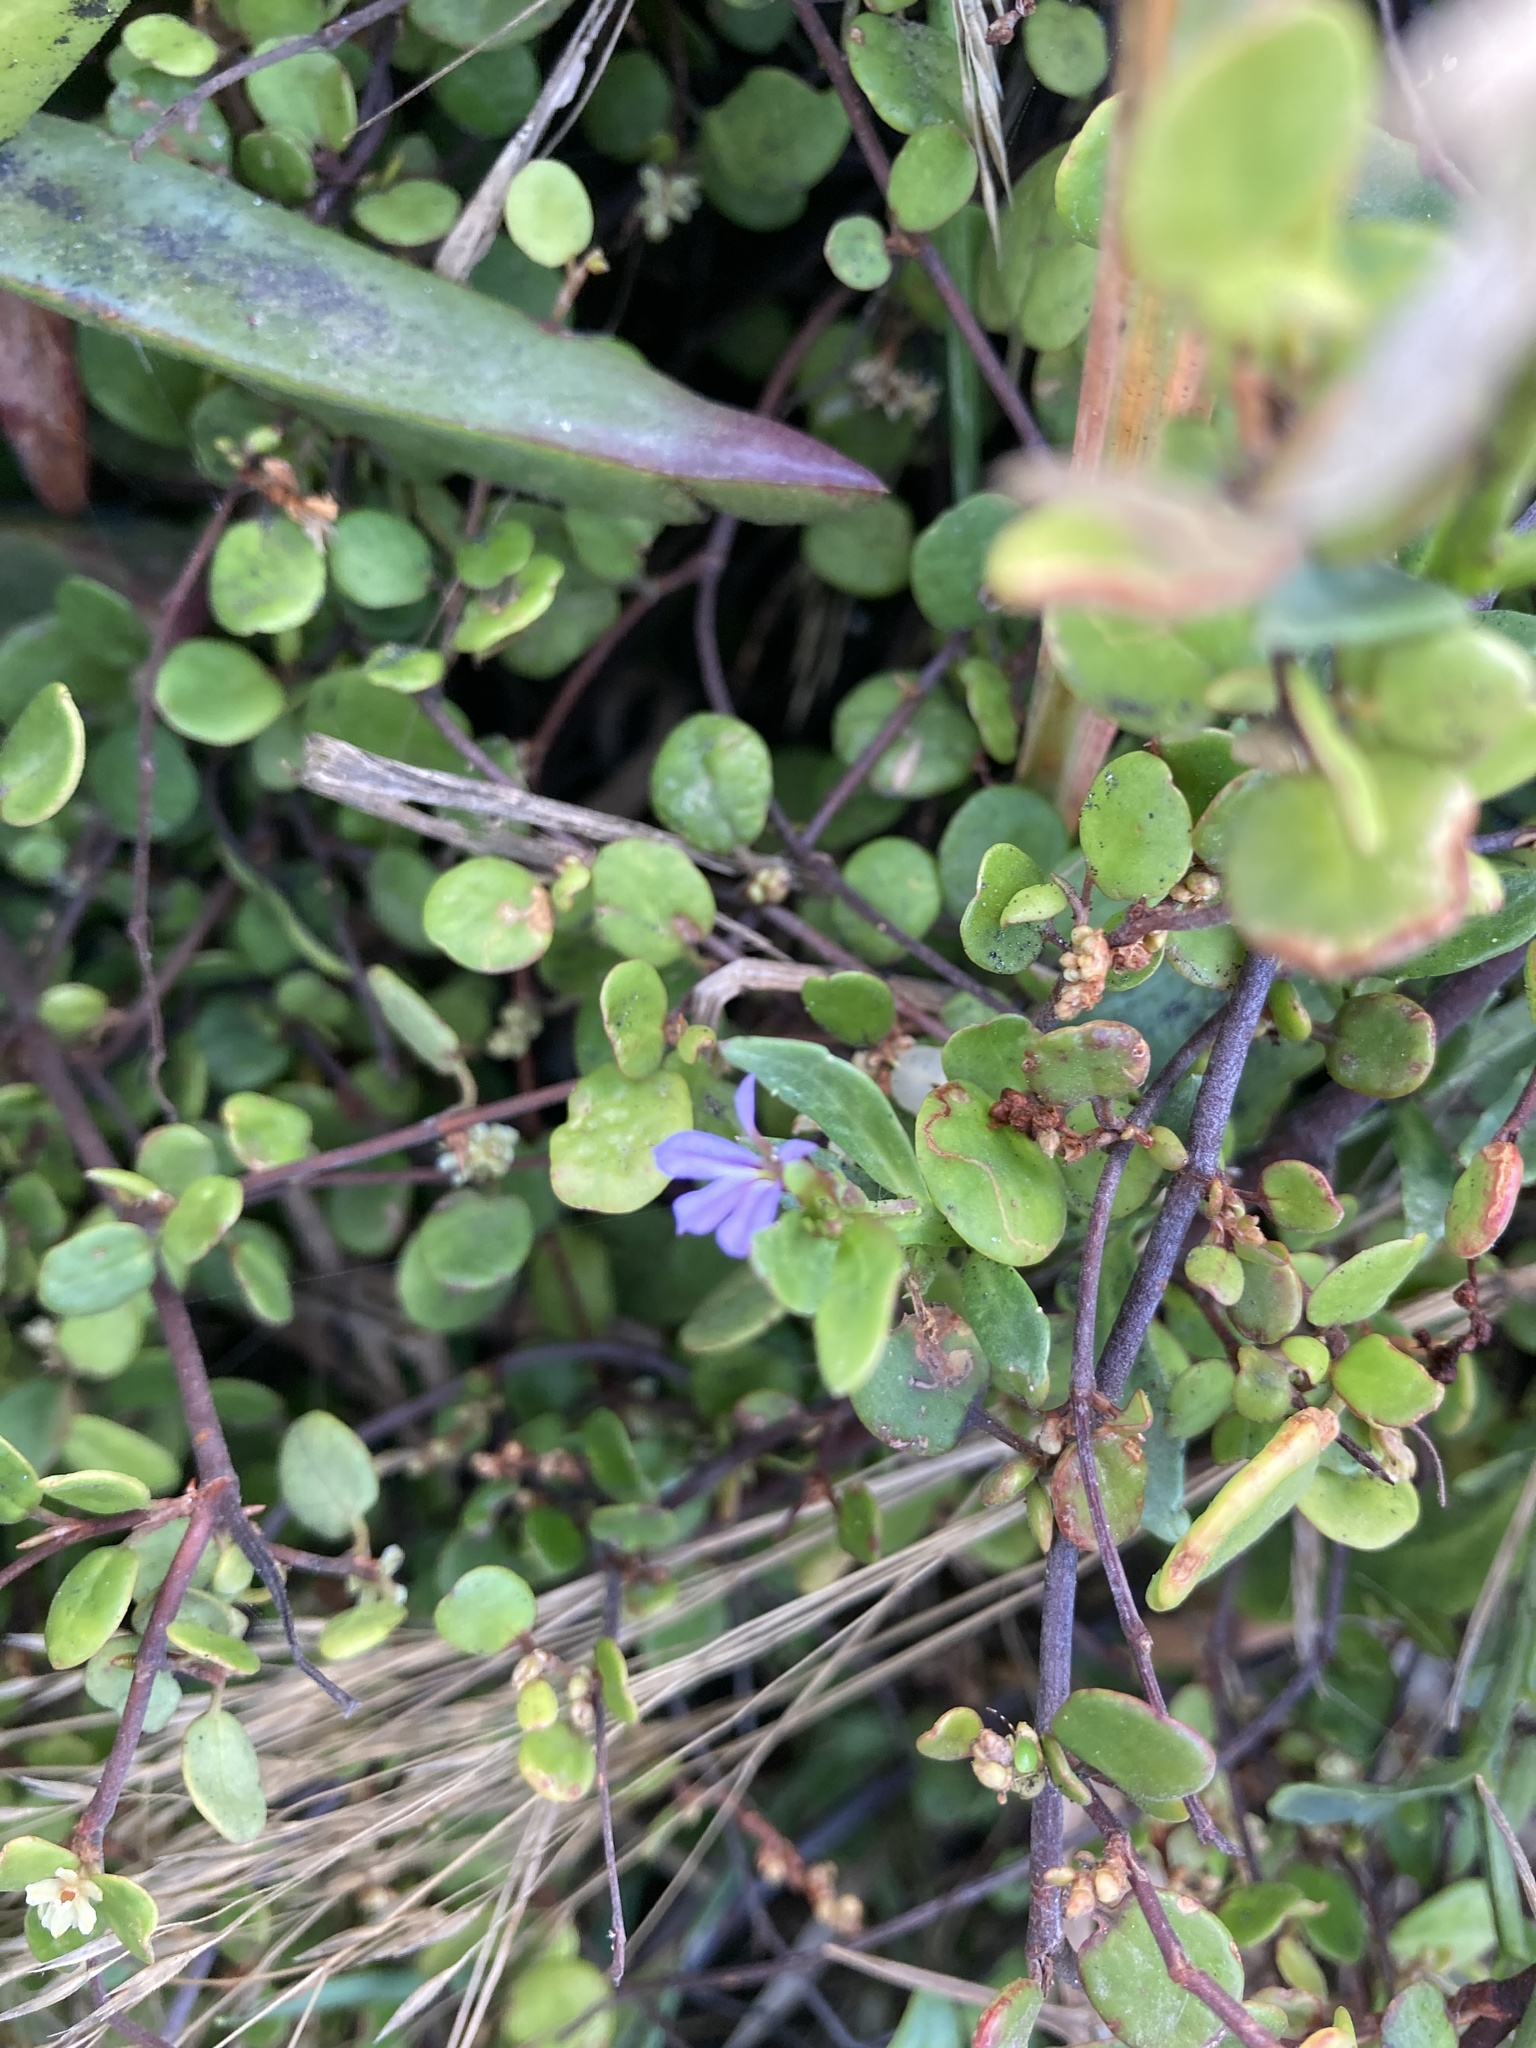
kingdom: Plantae
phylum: Tracheophyta
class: Magnoliopsida
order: Asterales
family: Campanulaceae
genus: Lobelia
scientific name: Lobelia anceps
